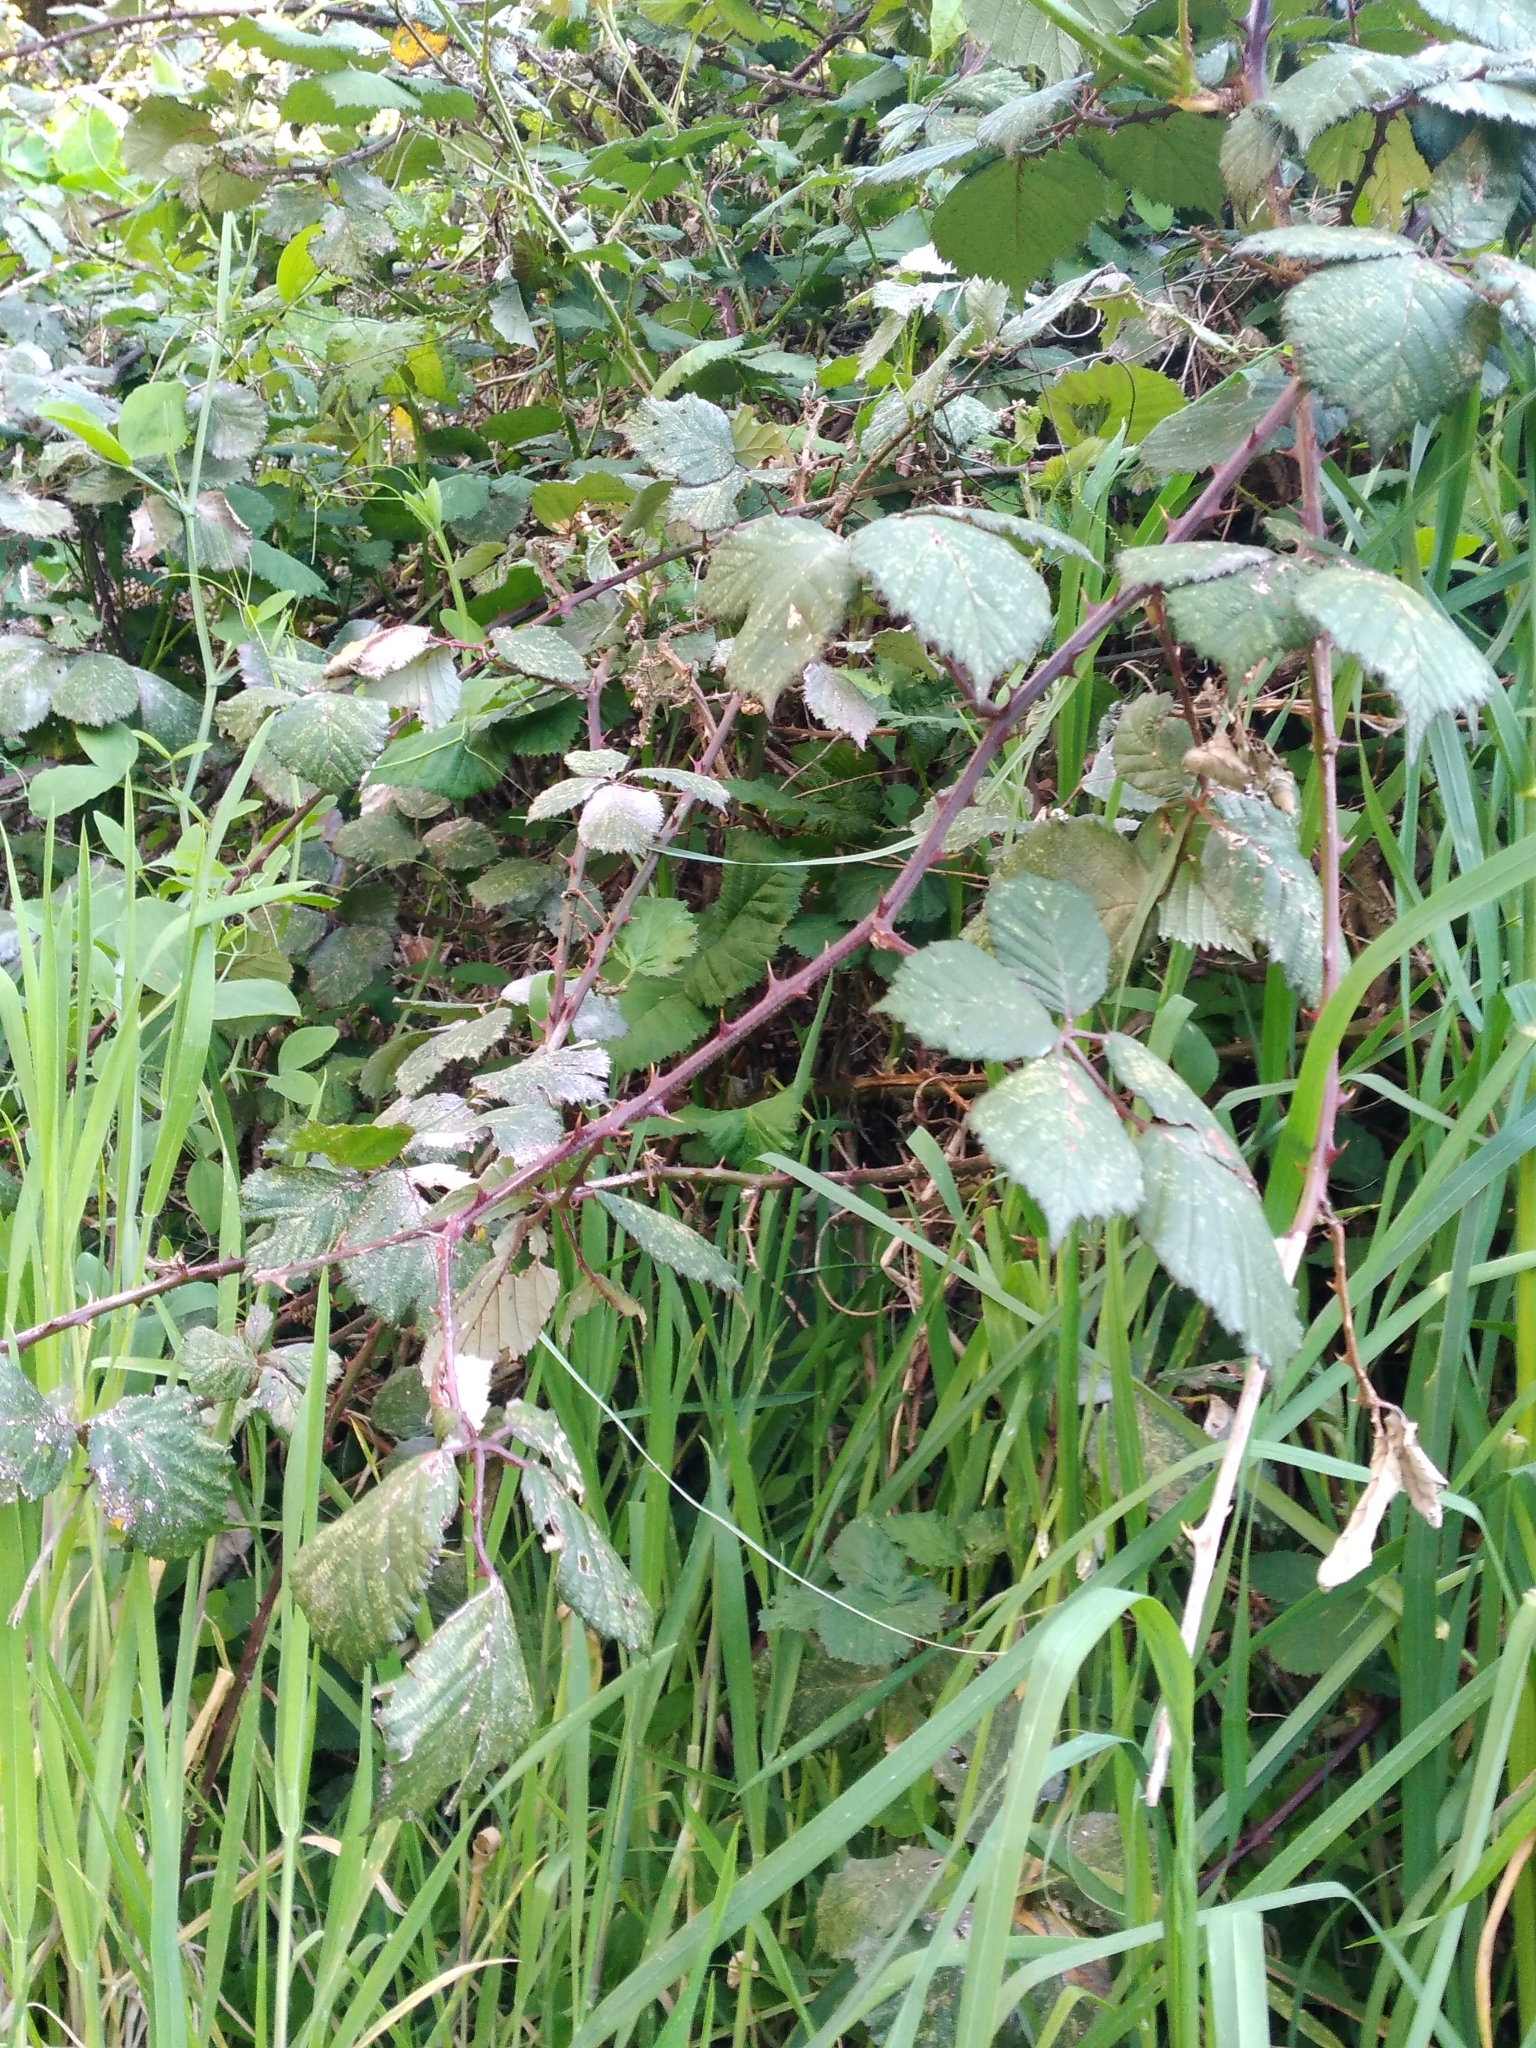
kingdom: Plantae
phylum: Tracheophyta
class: Magnoliopsida
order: Rosales
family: Rosaceae
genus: Rubus
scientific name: Rubus
